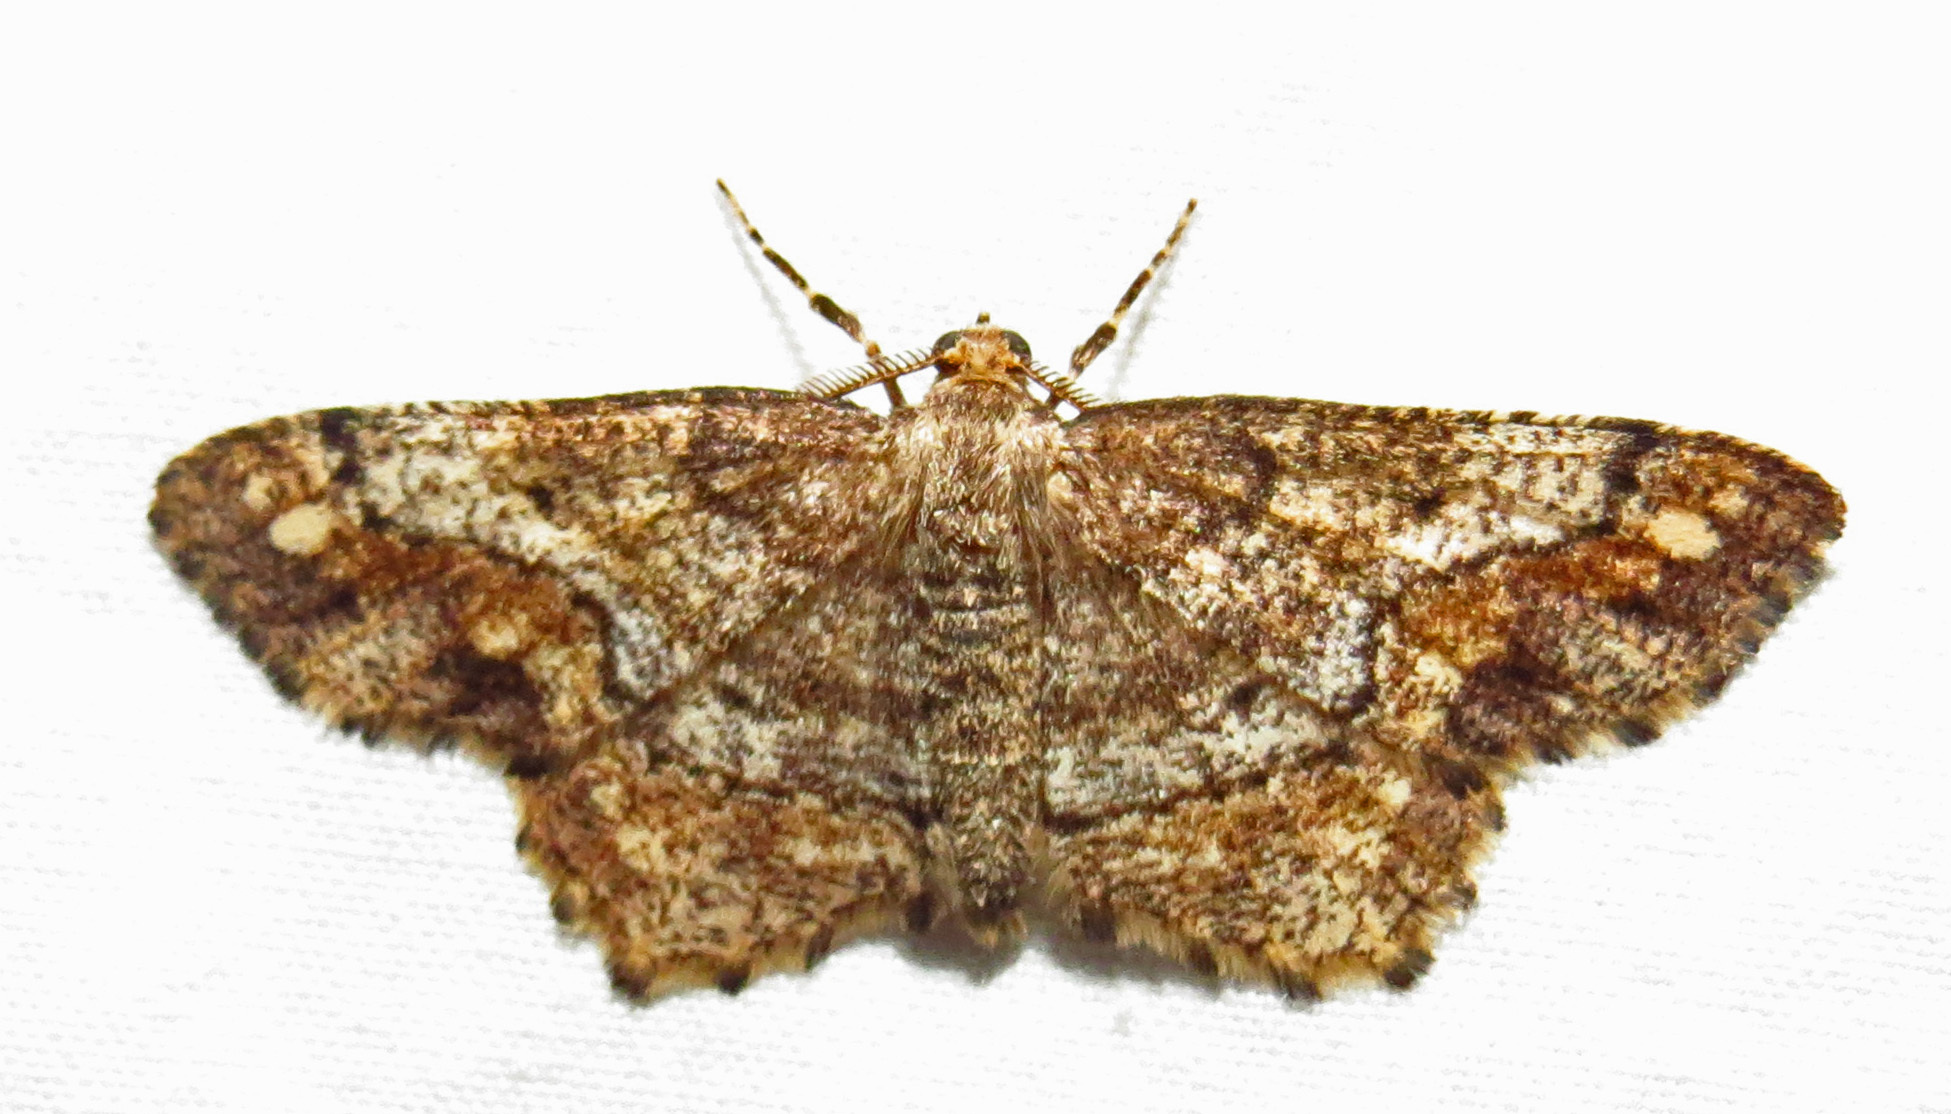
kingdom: Animalia
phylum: Arthropoda
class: Insecta
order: Lepidoptera
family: Geometridae
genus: Hypagyrtis
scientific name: Hypagyrtis unipunctata
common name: One-spotted variant
